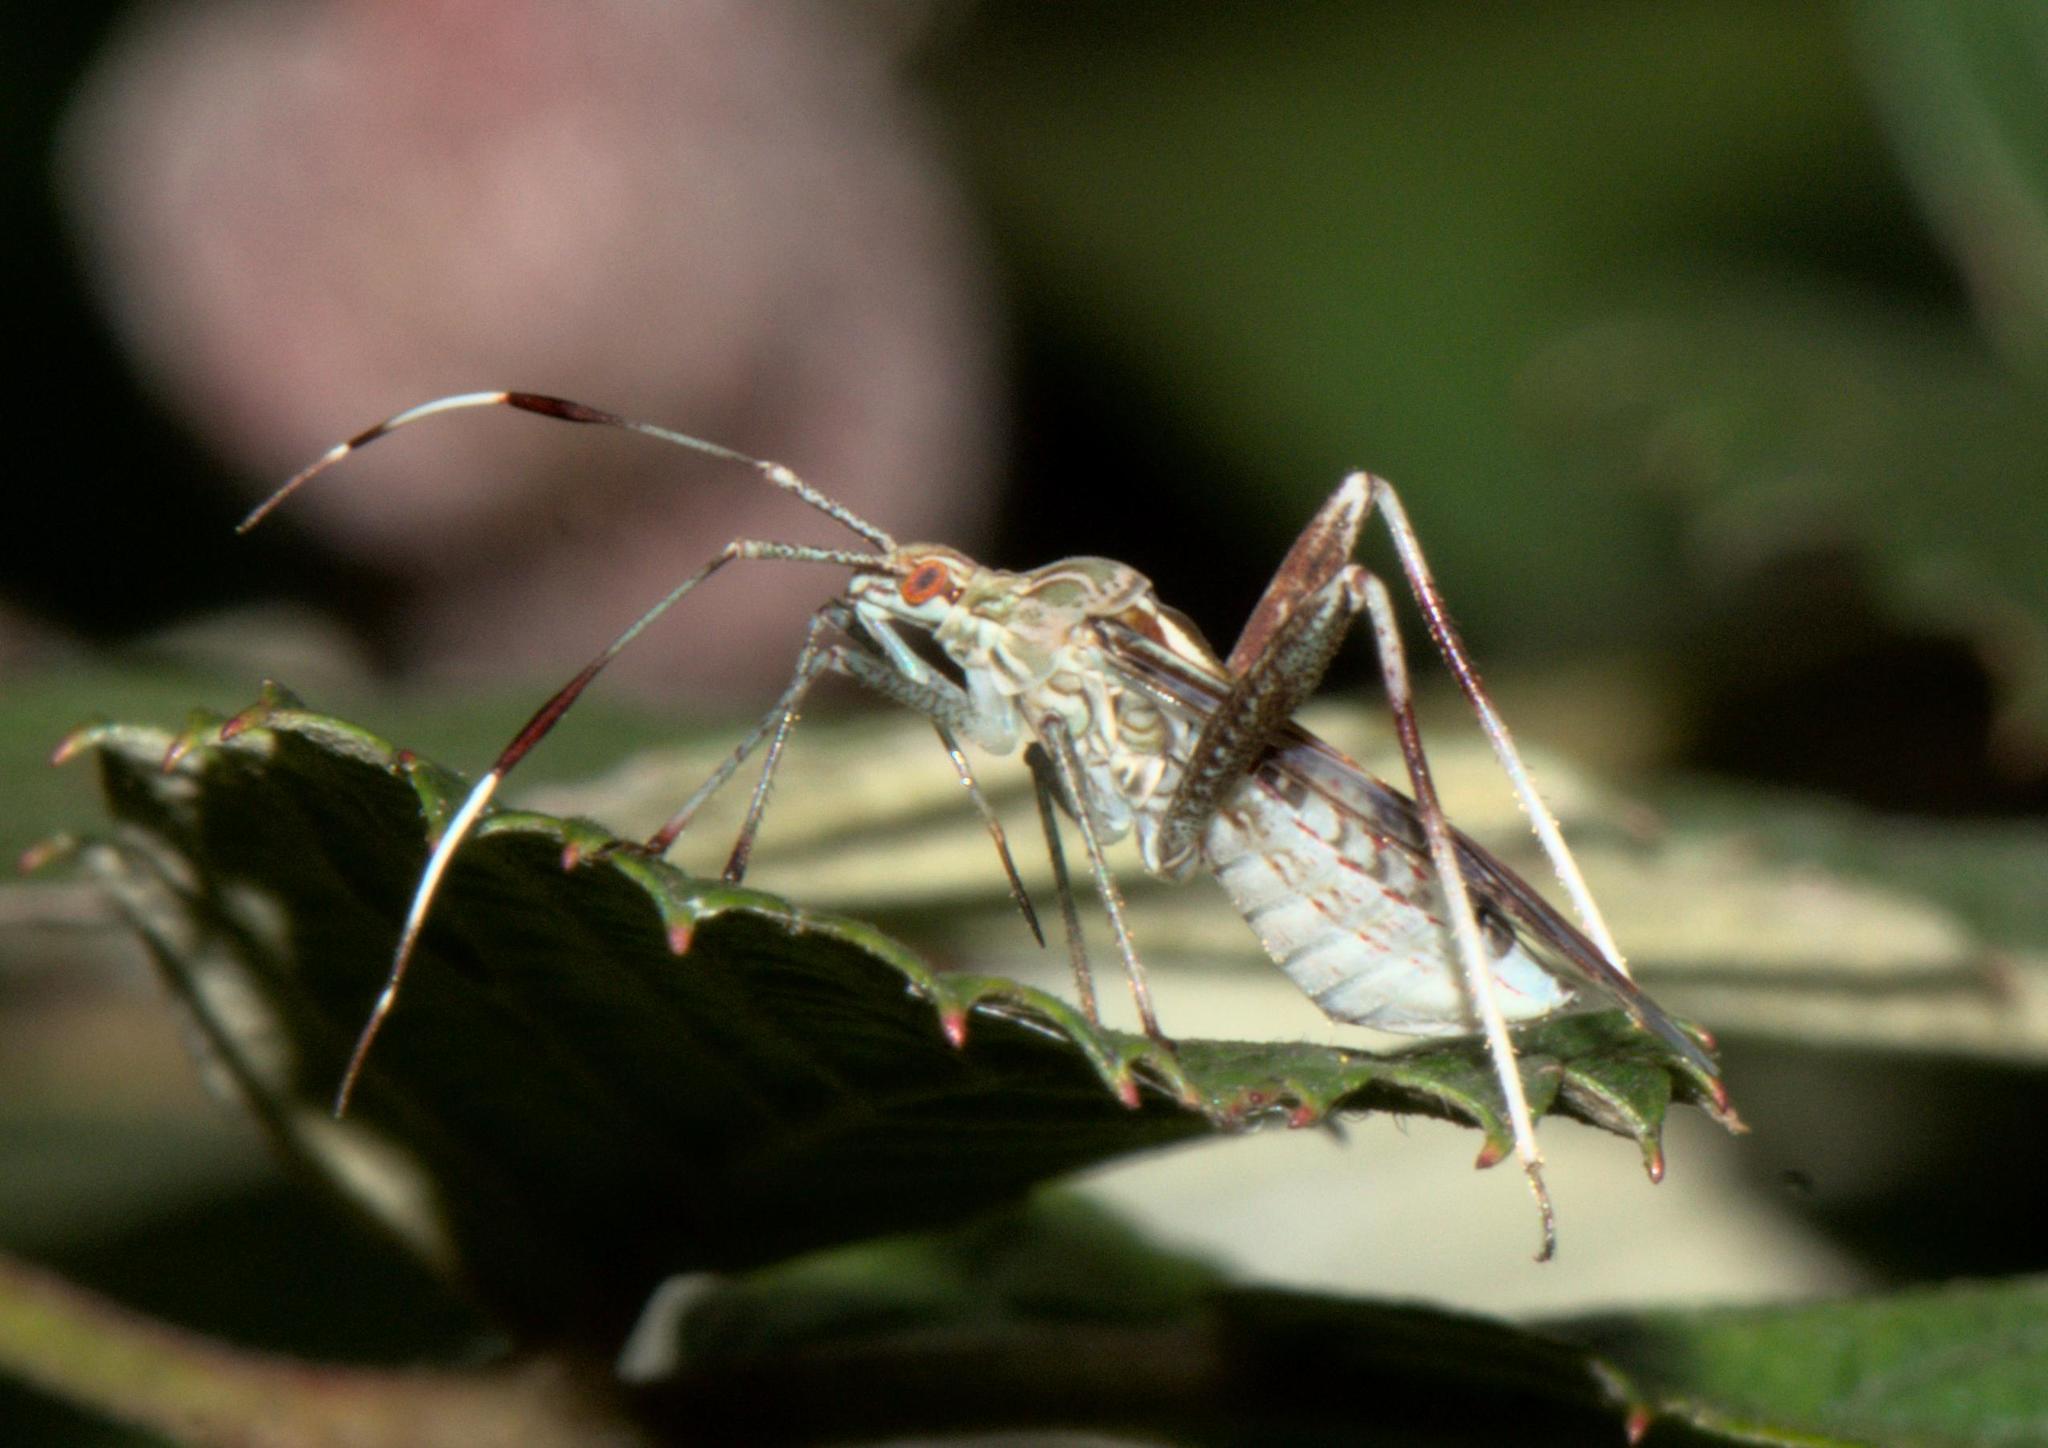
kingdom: Animalia
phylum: Arthropoda
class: Insecta
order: Hemiptera
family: Miridae
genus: Isabel
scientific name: Isabel ravana
